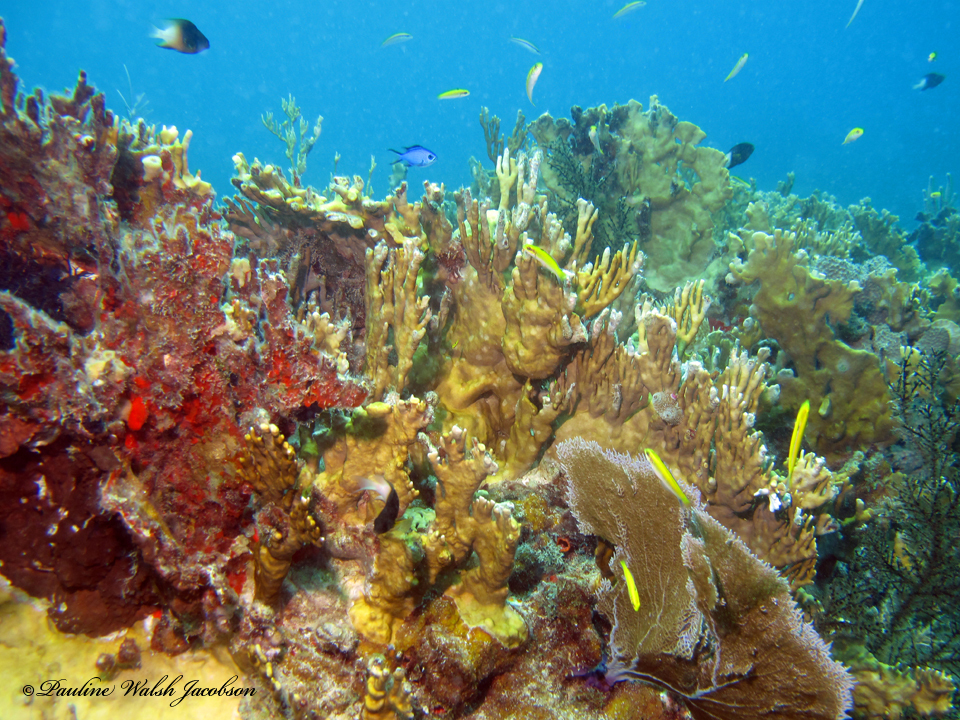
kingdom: Animalia
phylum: Chordata
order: Perciformes
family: Labridae
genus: Thalassoma
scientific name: Thalassoma bifasciatum
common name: Bluehead wrasse
